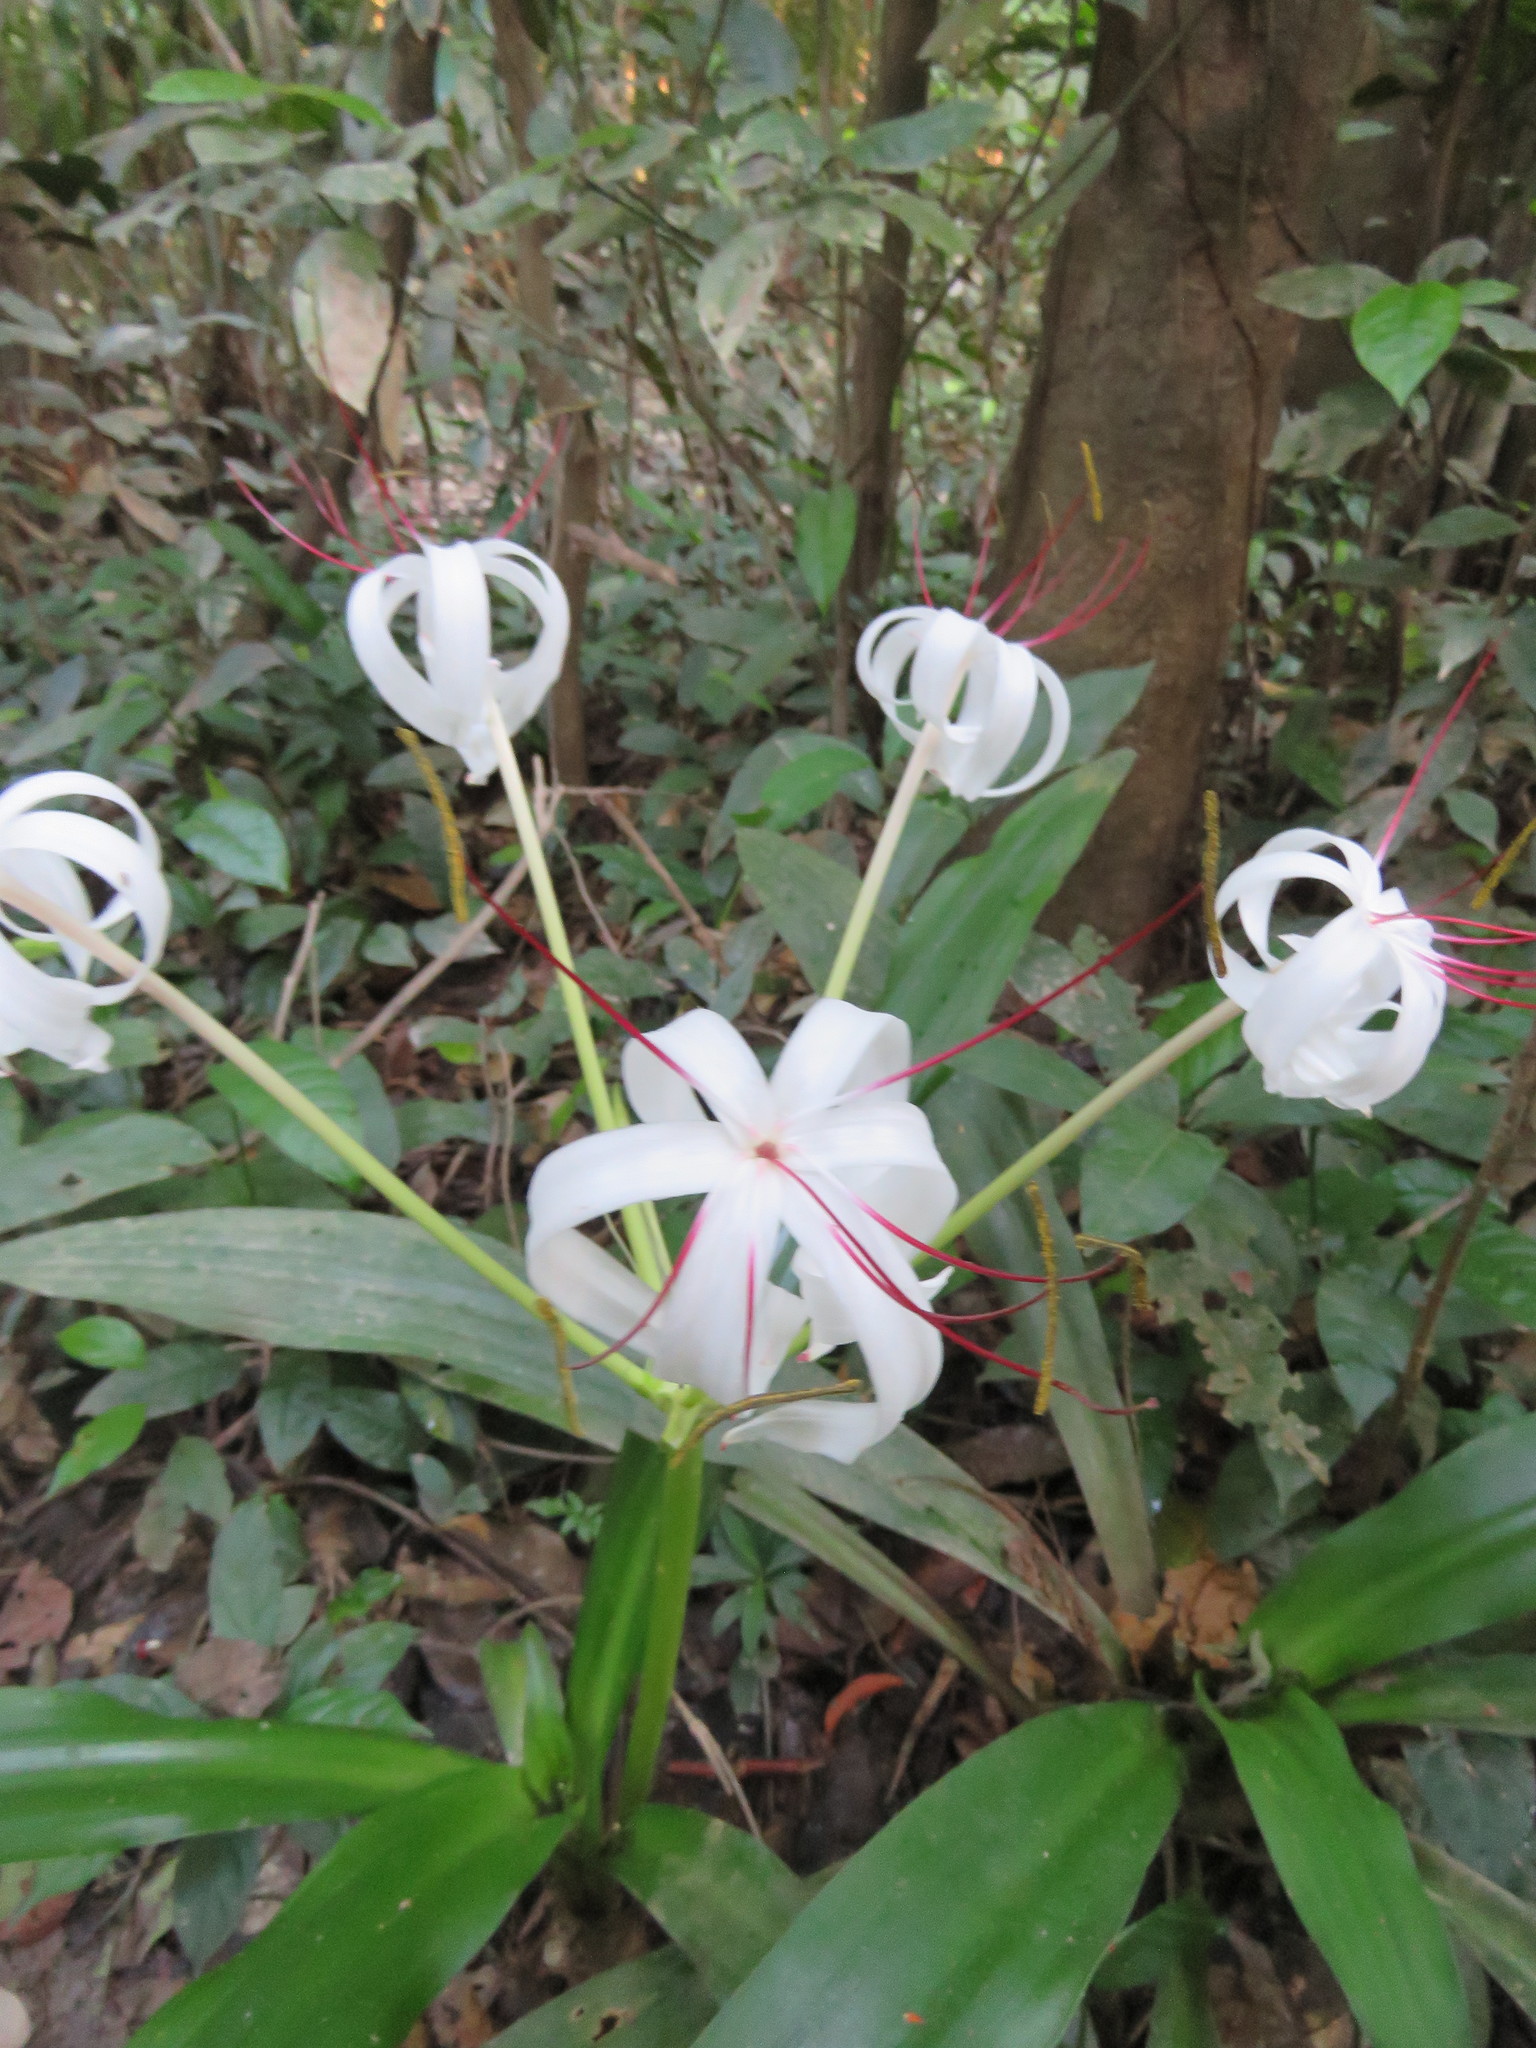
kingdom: Plantae
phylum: Tracheophyta
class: Liliopsida
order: Asparagales
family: Amaryllidaceae
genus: Crinum
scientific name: Crinum americanum
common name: Florida swamp-lily
